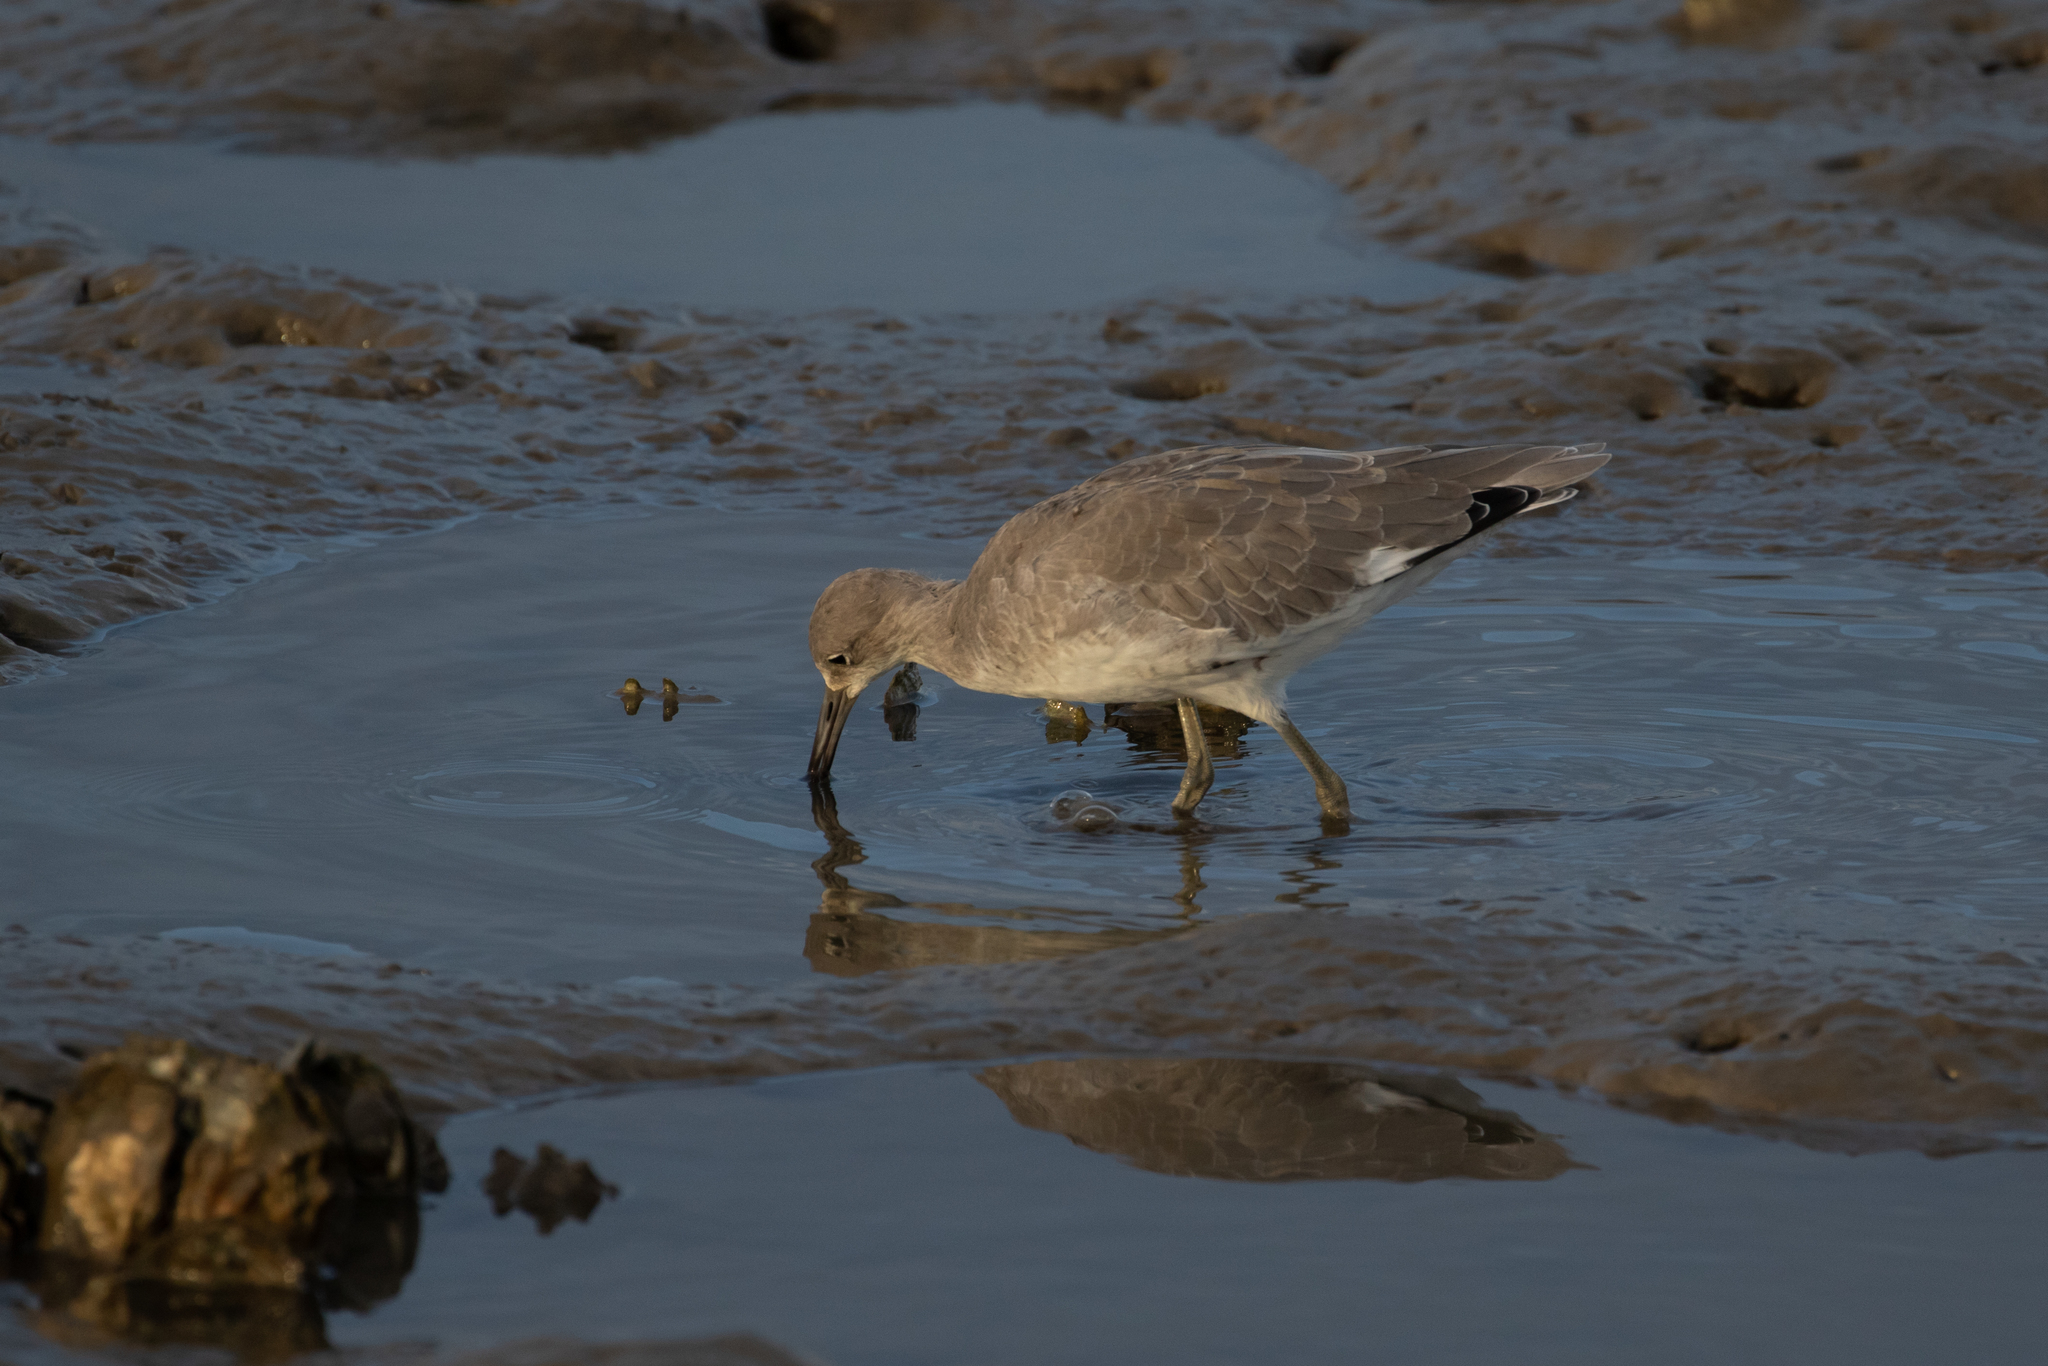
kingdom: Animalia
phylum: Chordata
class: Aves
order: Charadriiformes
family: Scolopacidae
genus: Tringa
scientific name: Tringa semipalmata
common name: Willet
